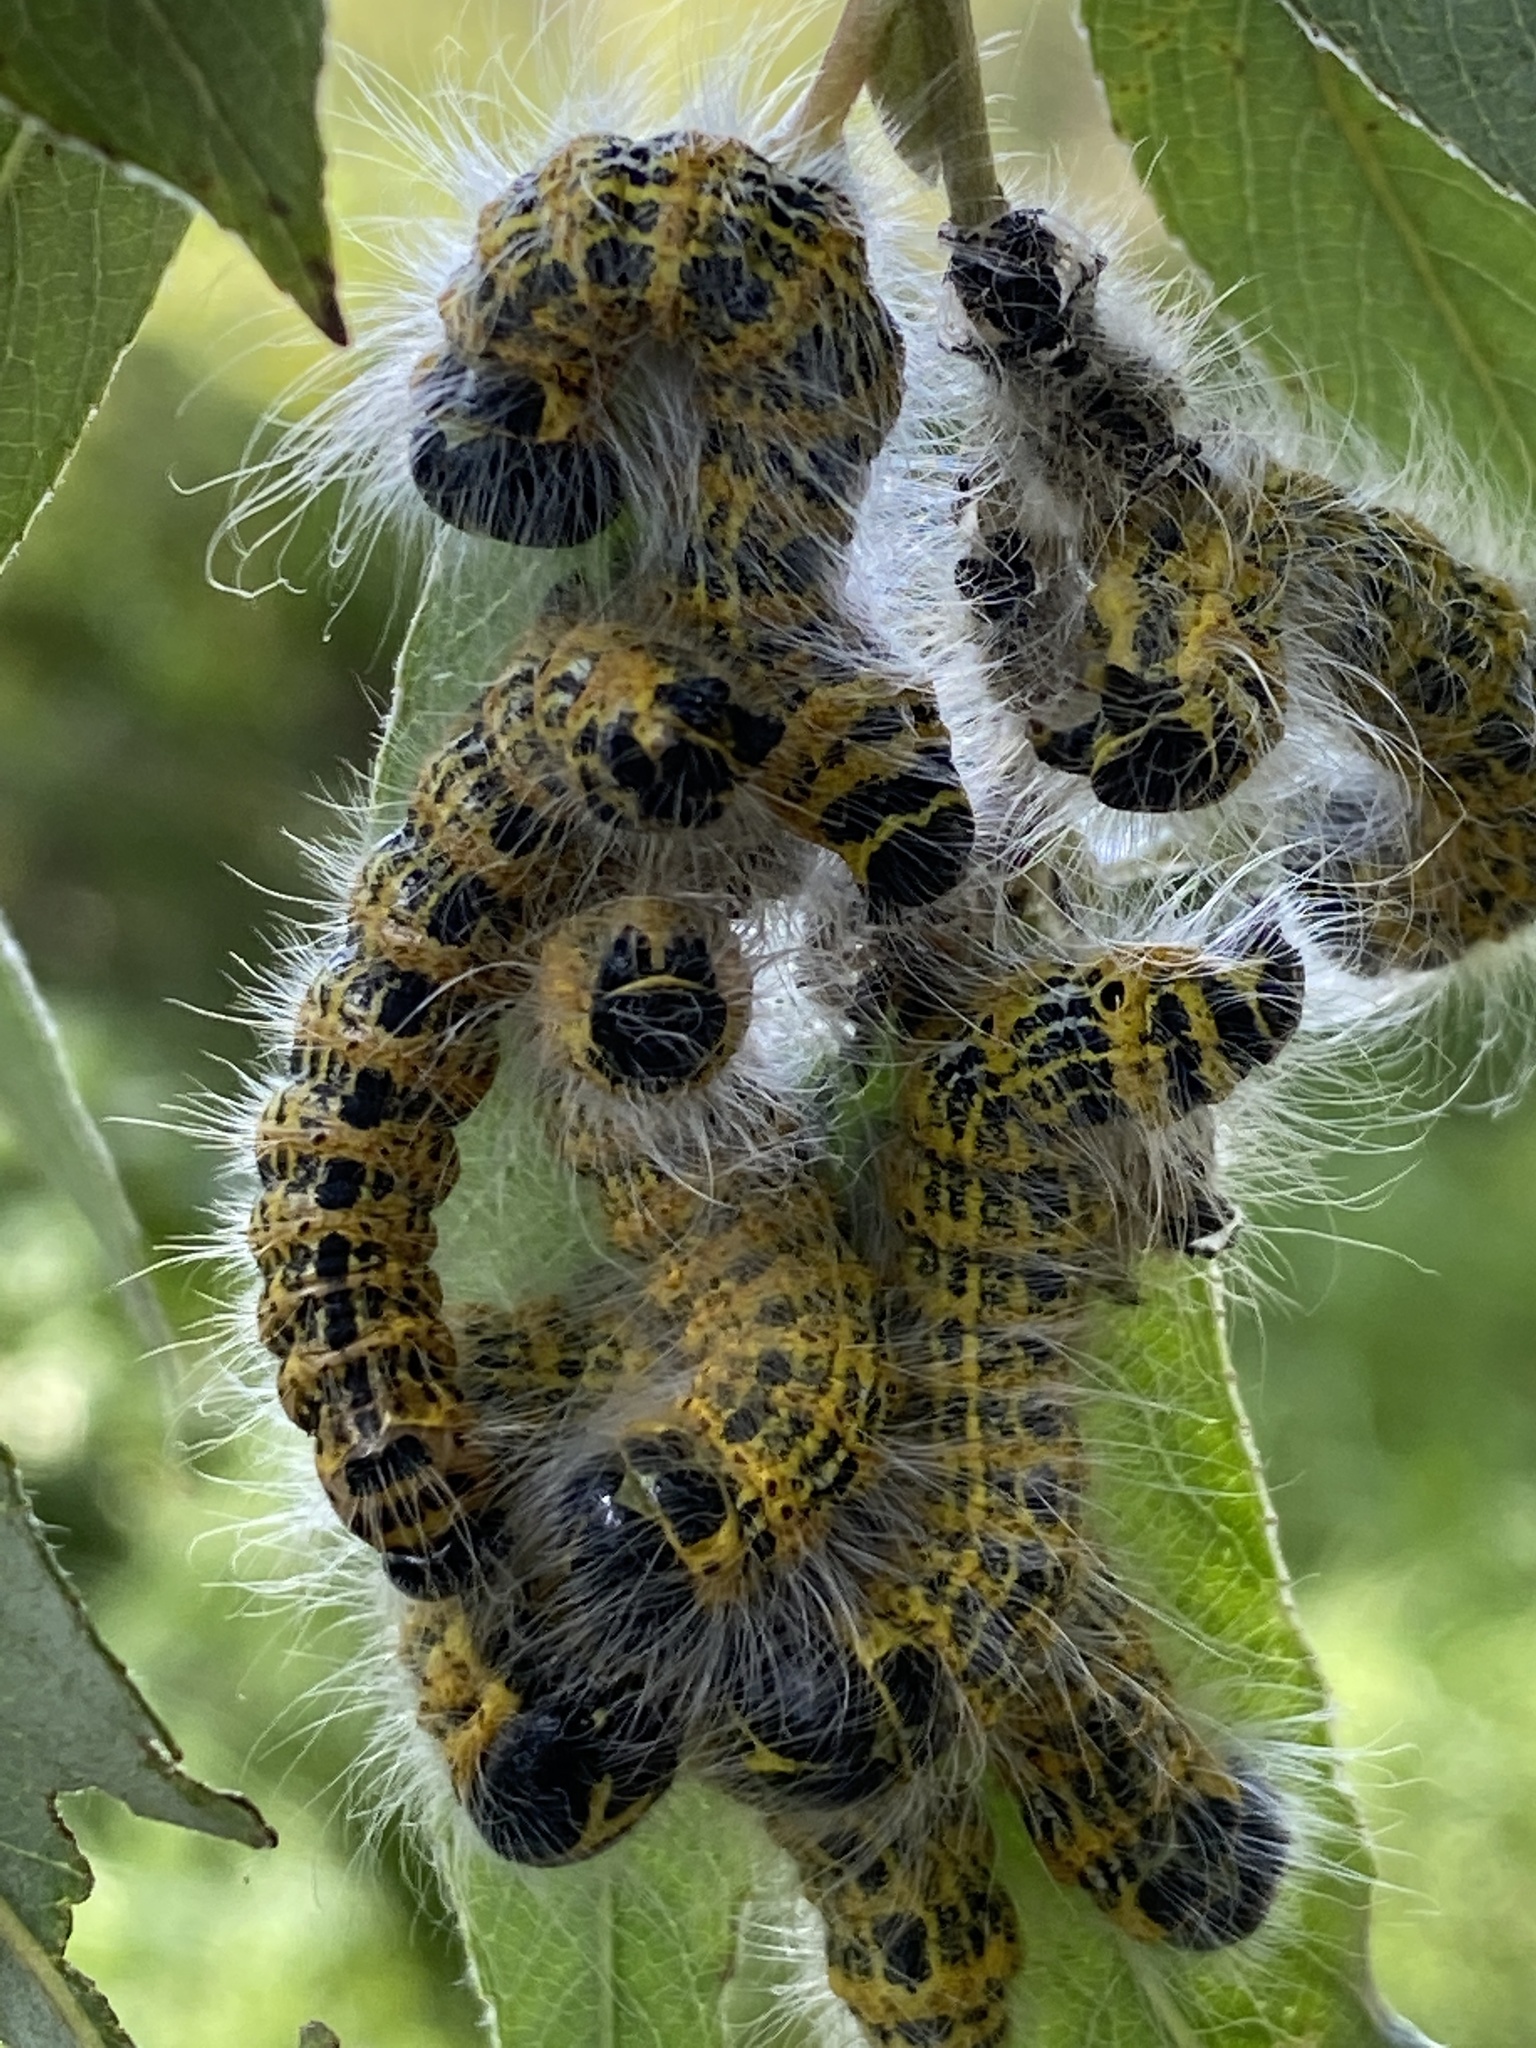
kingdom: Animalia
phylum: Arthropoda
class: Insecta
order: Lepidoptera
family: Notodontidae
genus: Phalera
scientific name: Phalera bucephala
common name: Buff-tip
